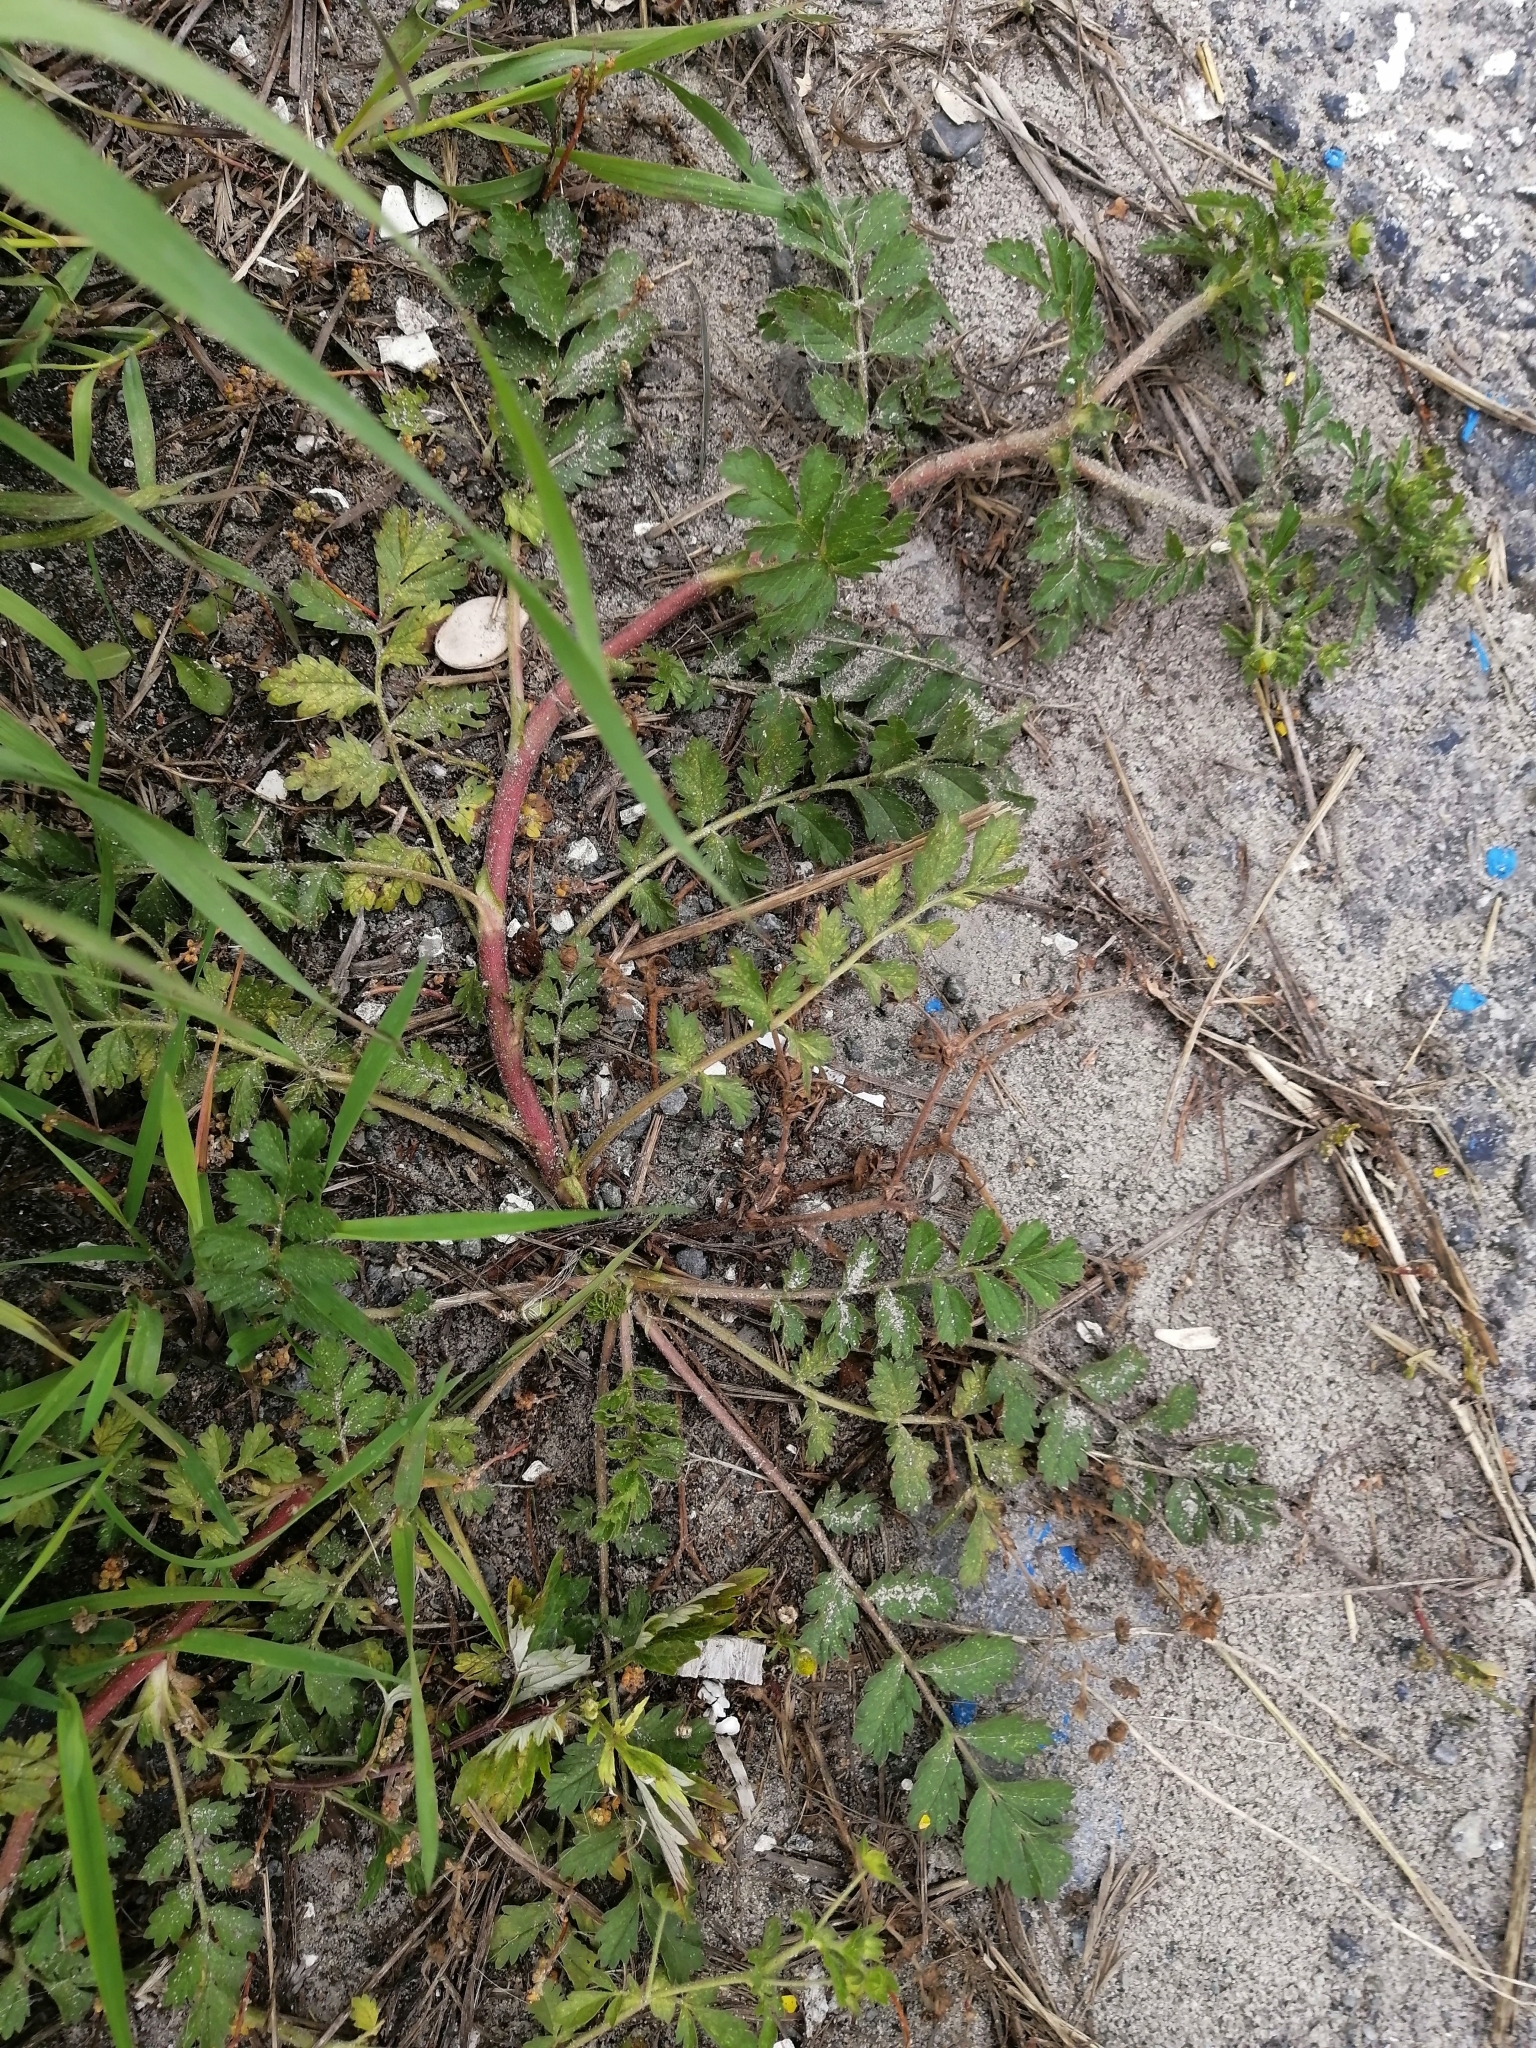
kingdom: Plantae
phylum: Tracheophyta
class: Magnoliopsida
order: Rosales
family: Rosaceae
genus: Potentilla
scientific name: Potentilla supina
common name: Prostrate cinquefoil
